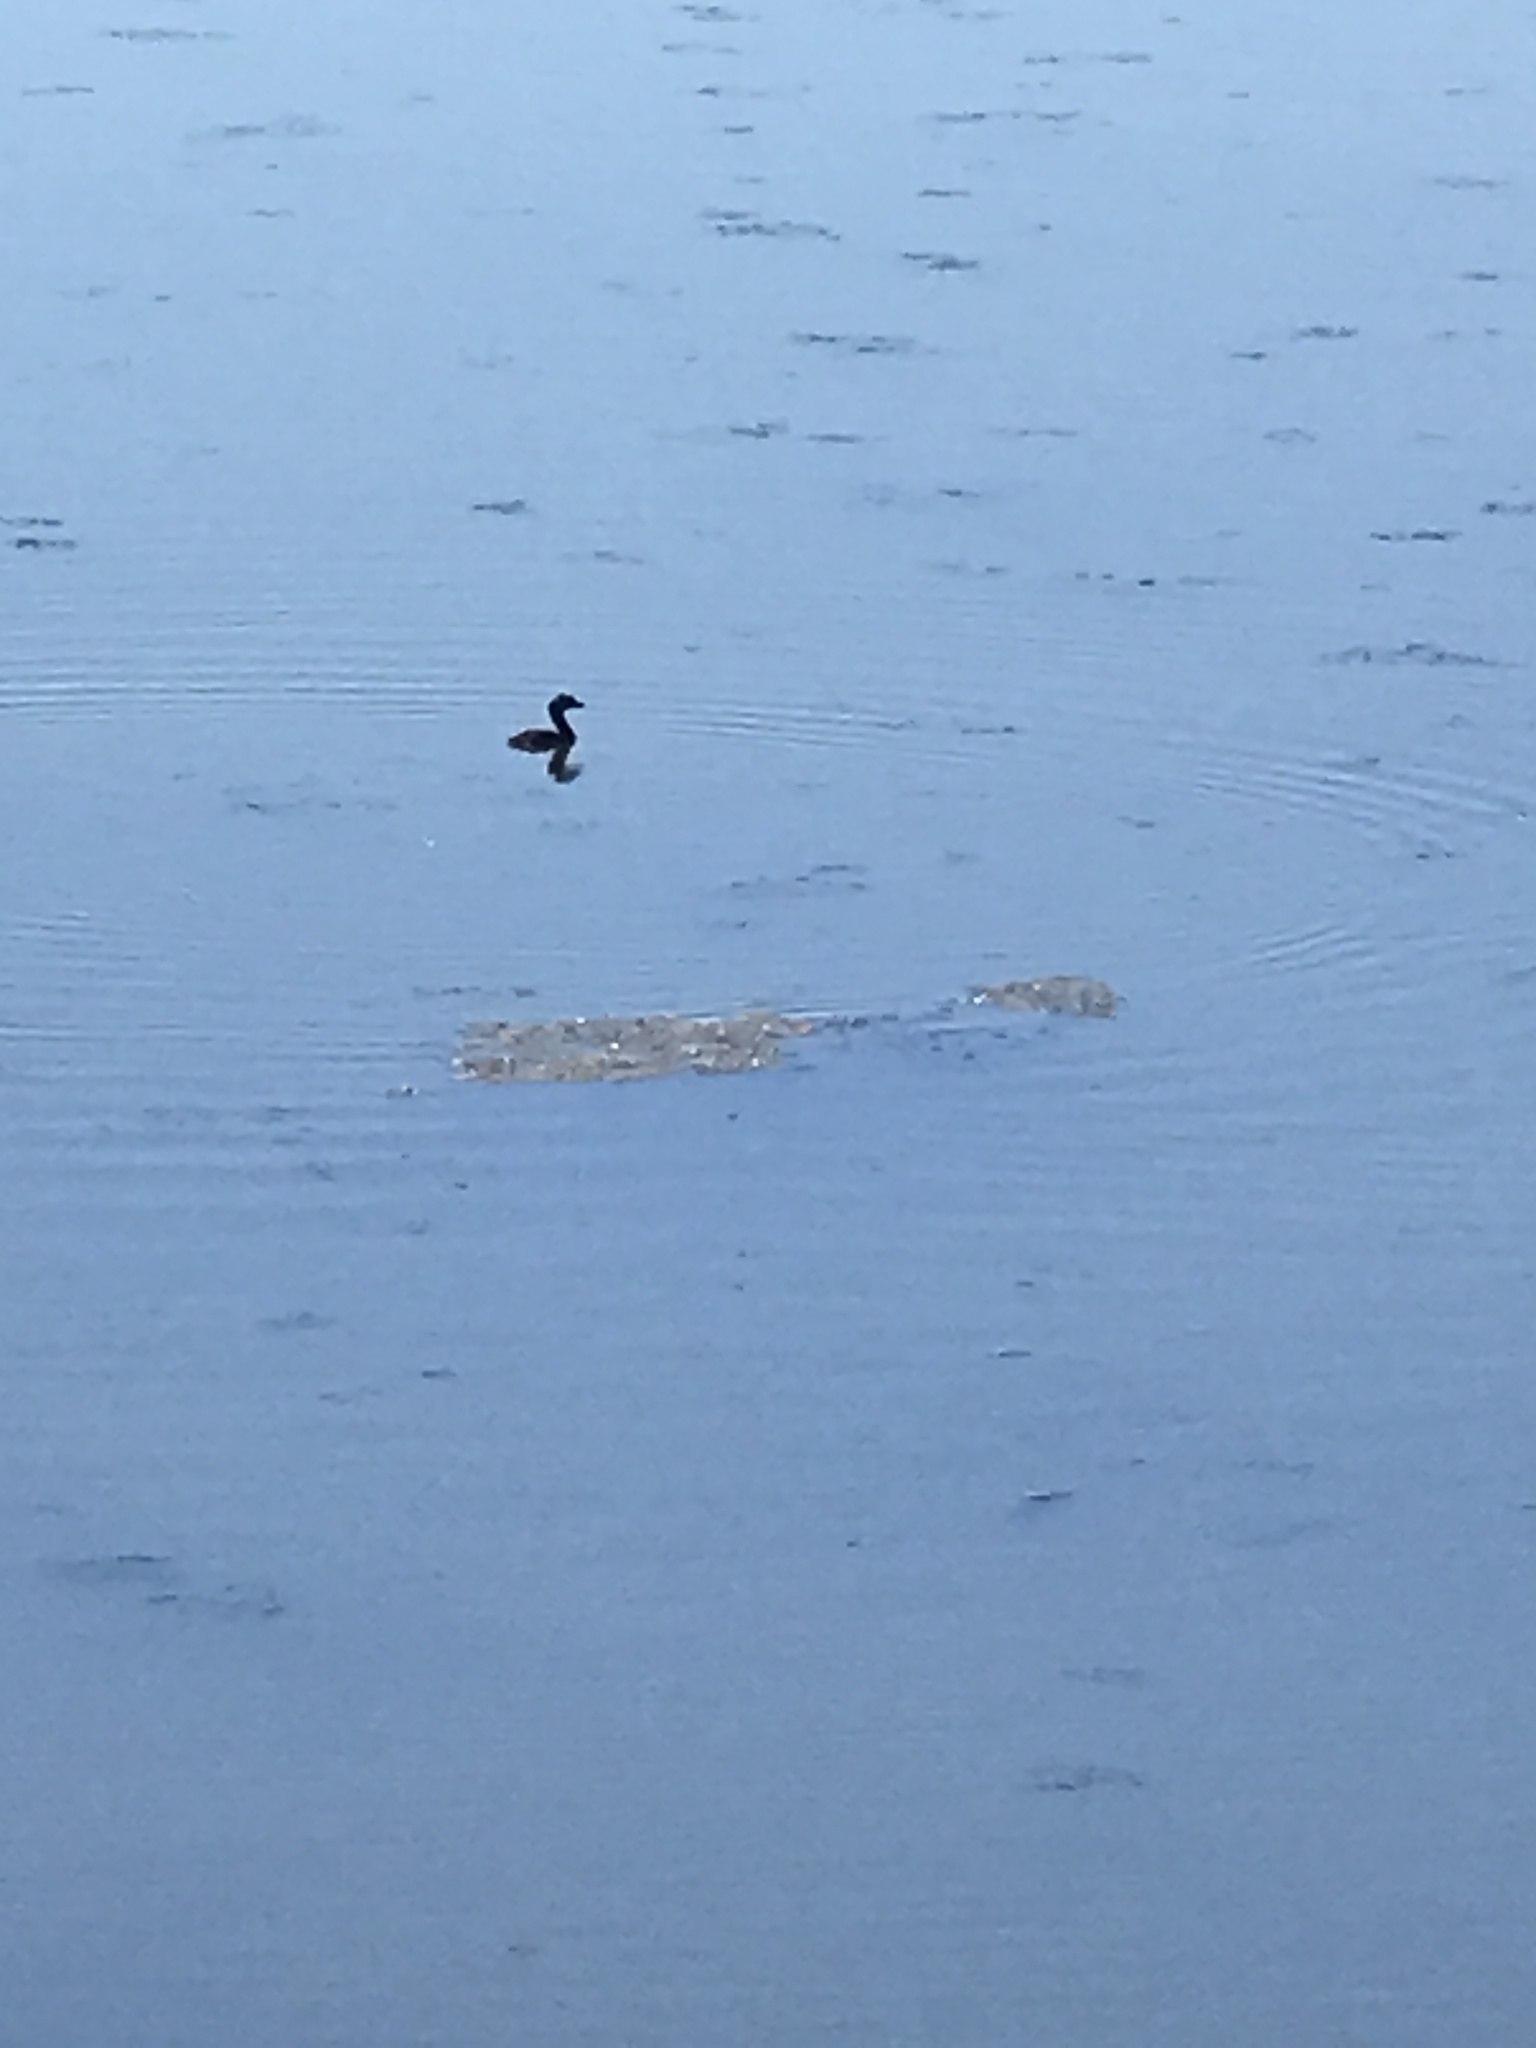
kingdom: Animalia
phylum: Chordata
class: Aves
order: Podicipediformes
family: Podicipedidae
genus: Podilymbus
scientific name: Podilymbus podiceps
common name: Pied-billed grebe
